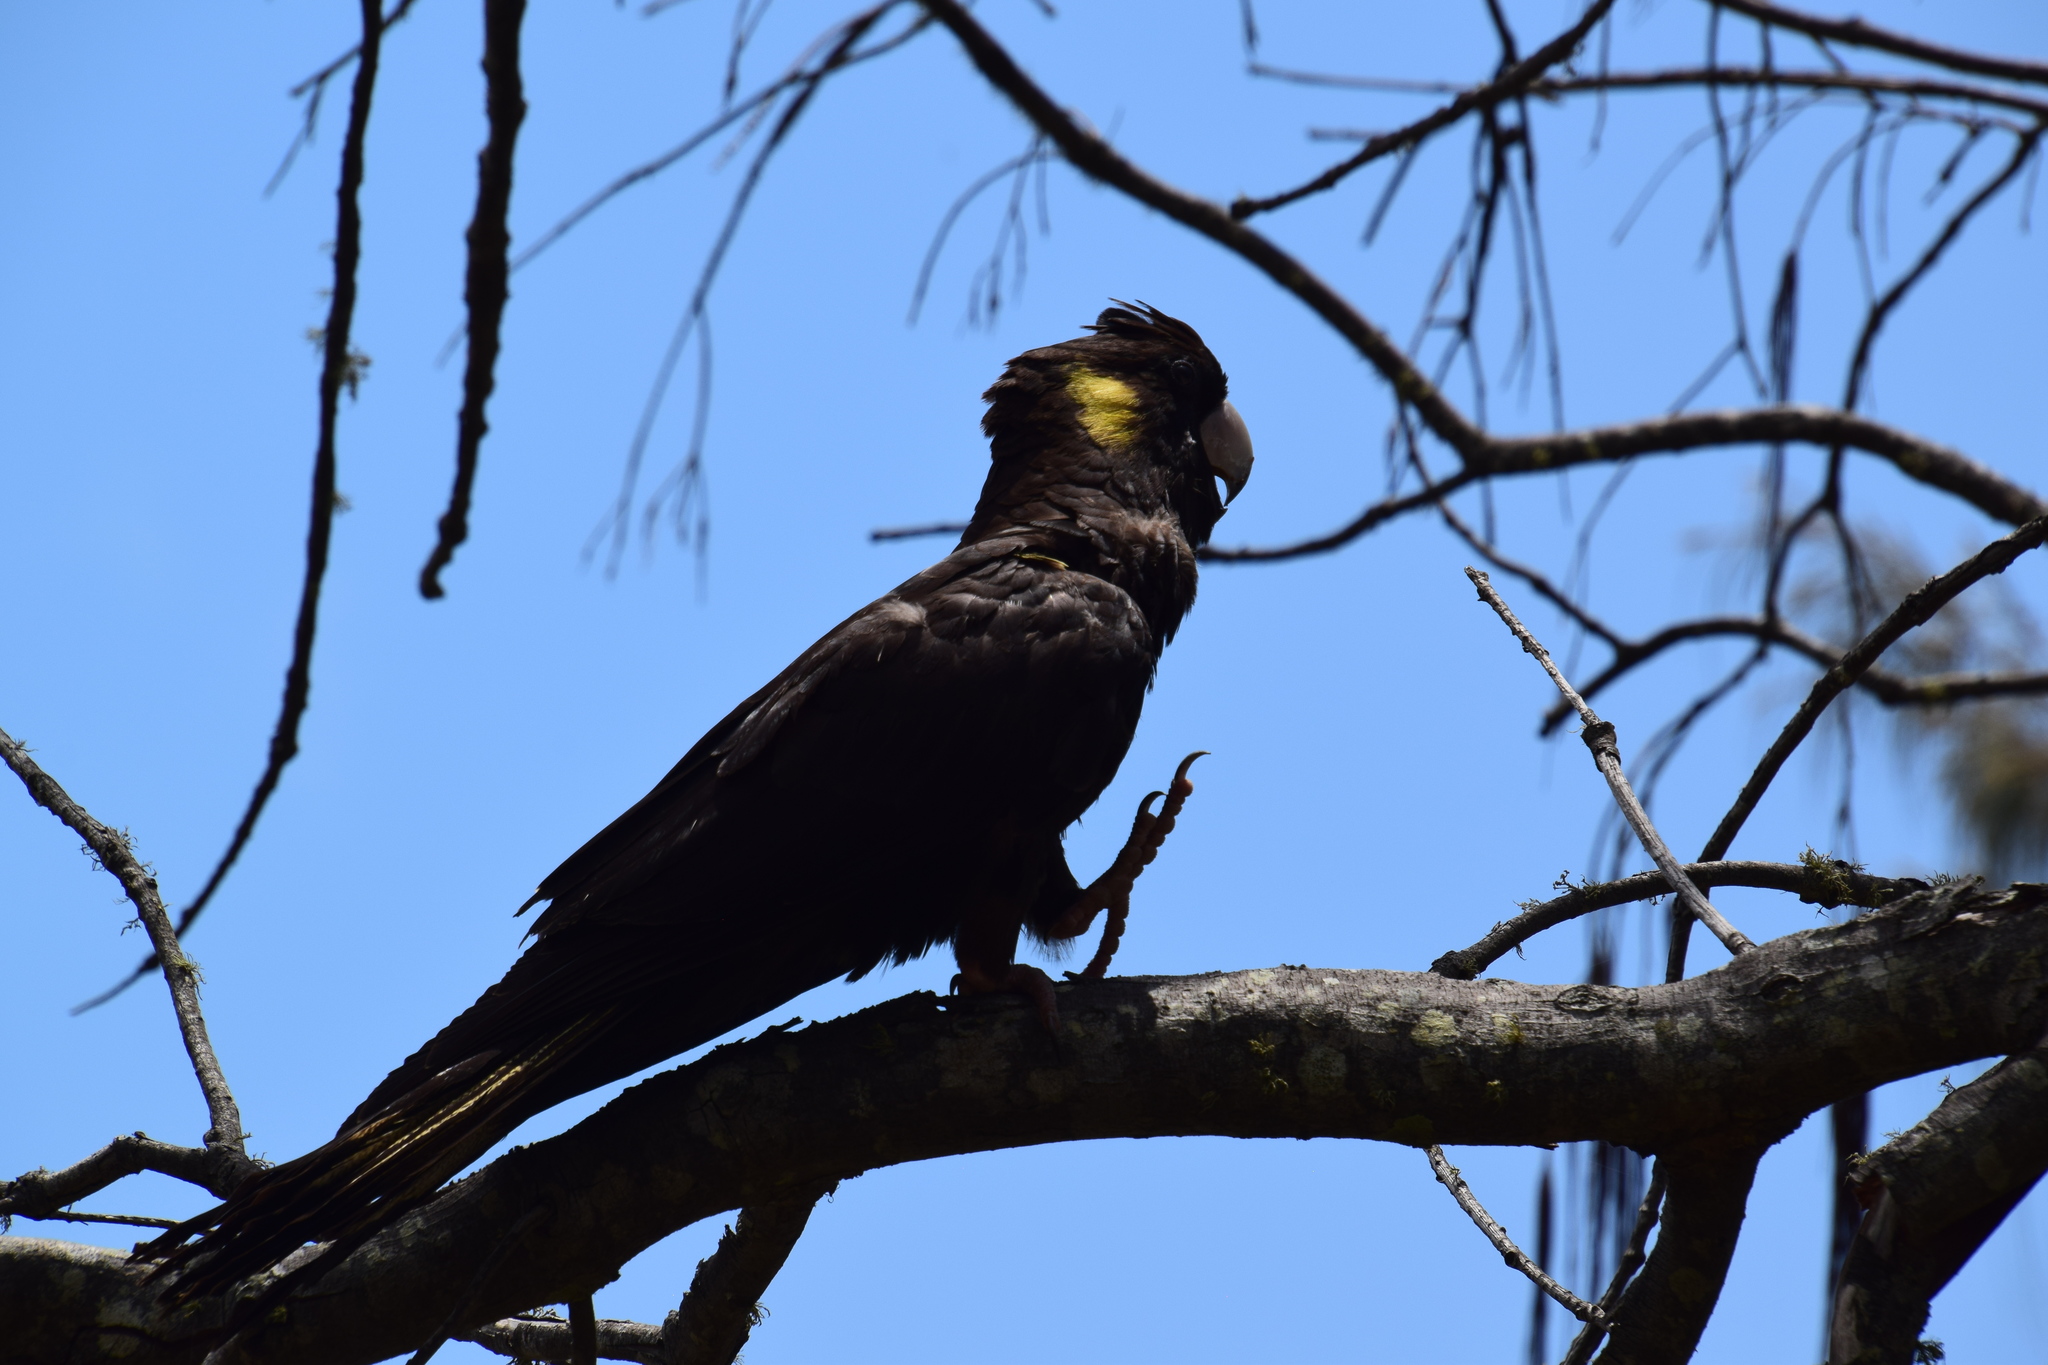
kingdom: Animalia
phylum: Chordata
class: Aves
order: Psittaciformes
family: Cacatuidae
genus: Zanda
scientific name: Zanda funerea
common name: Yellow-tailed black-cockatoo
